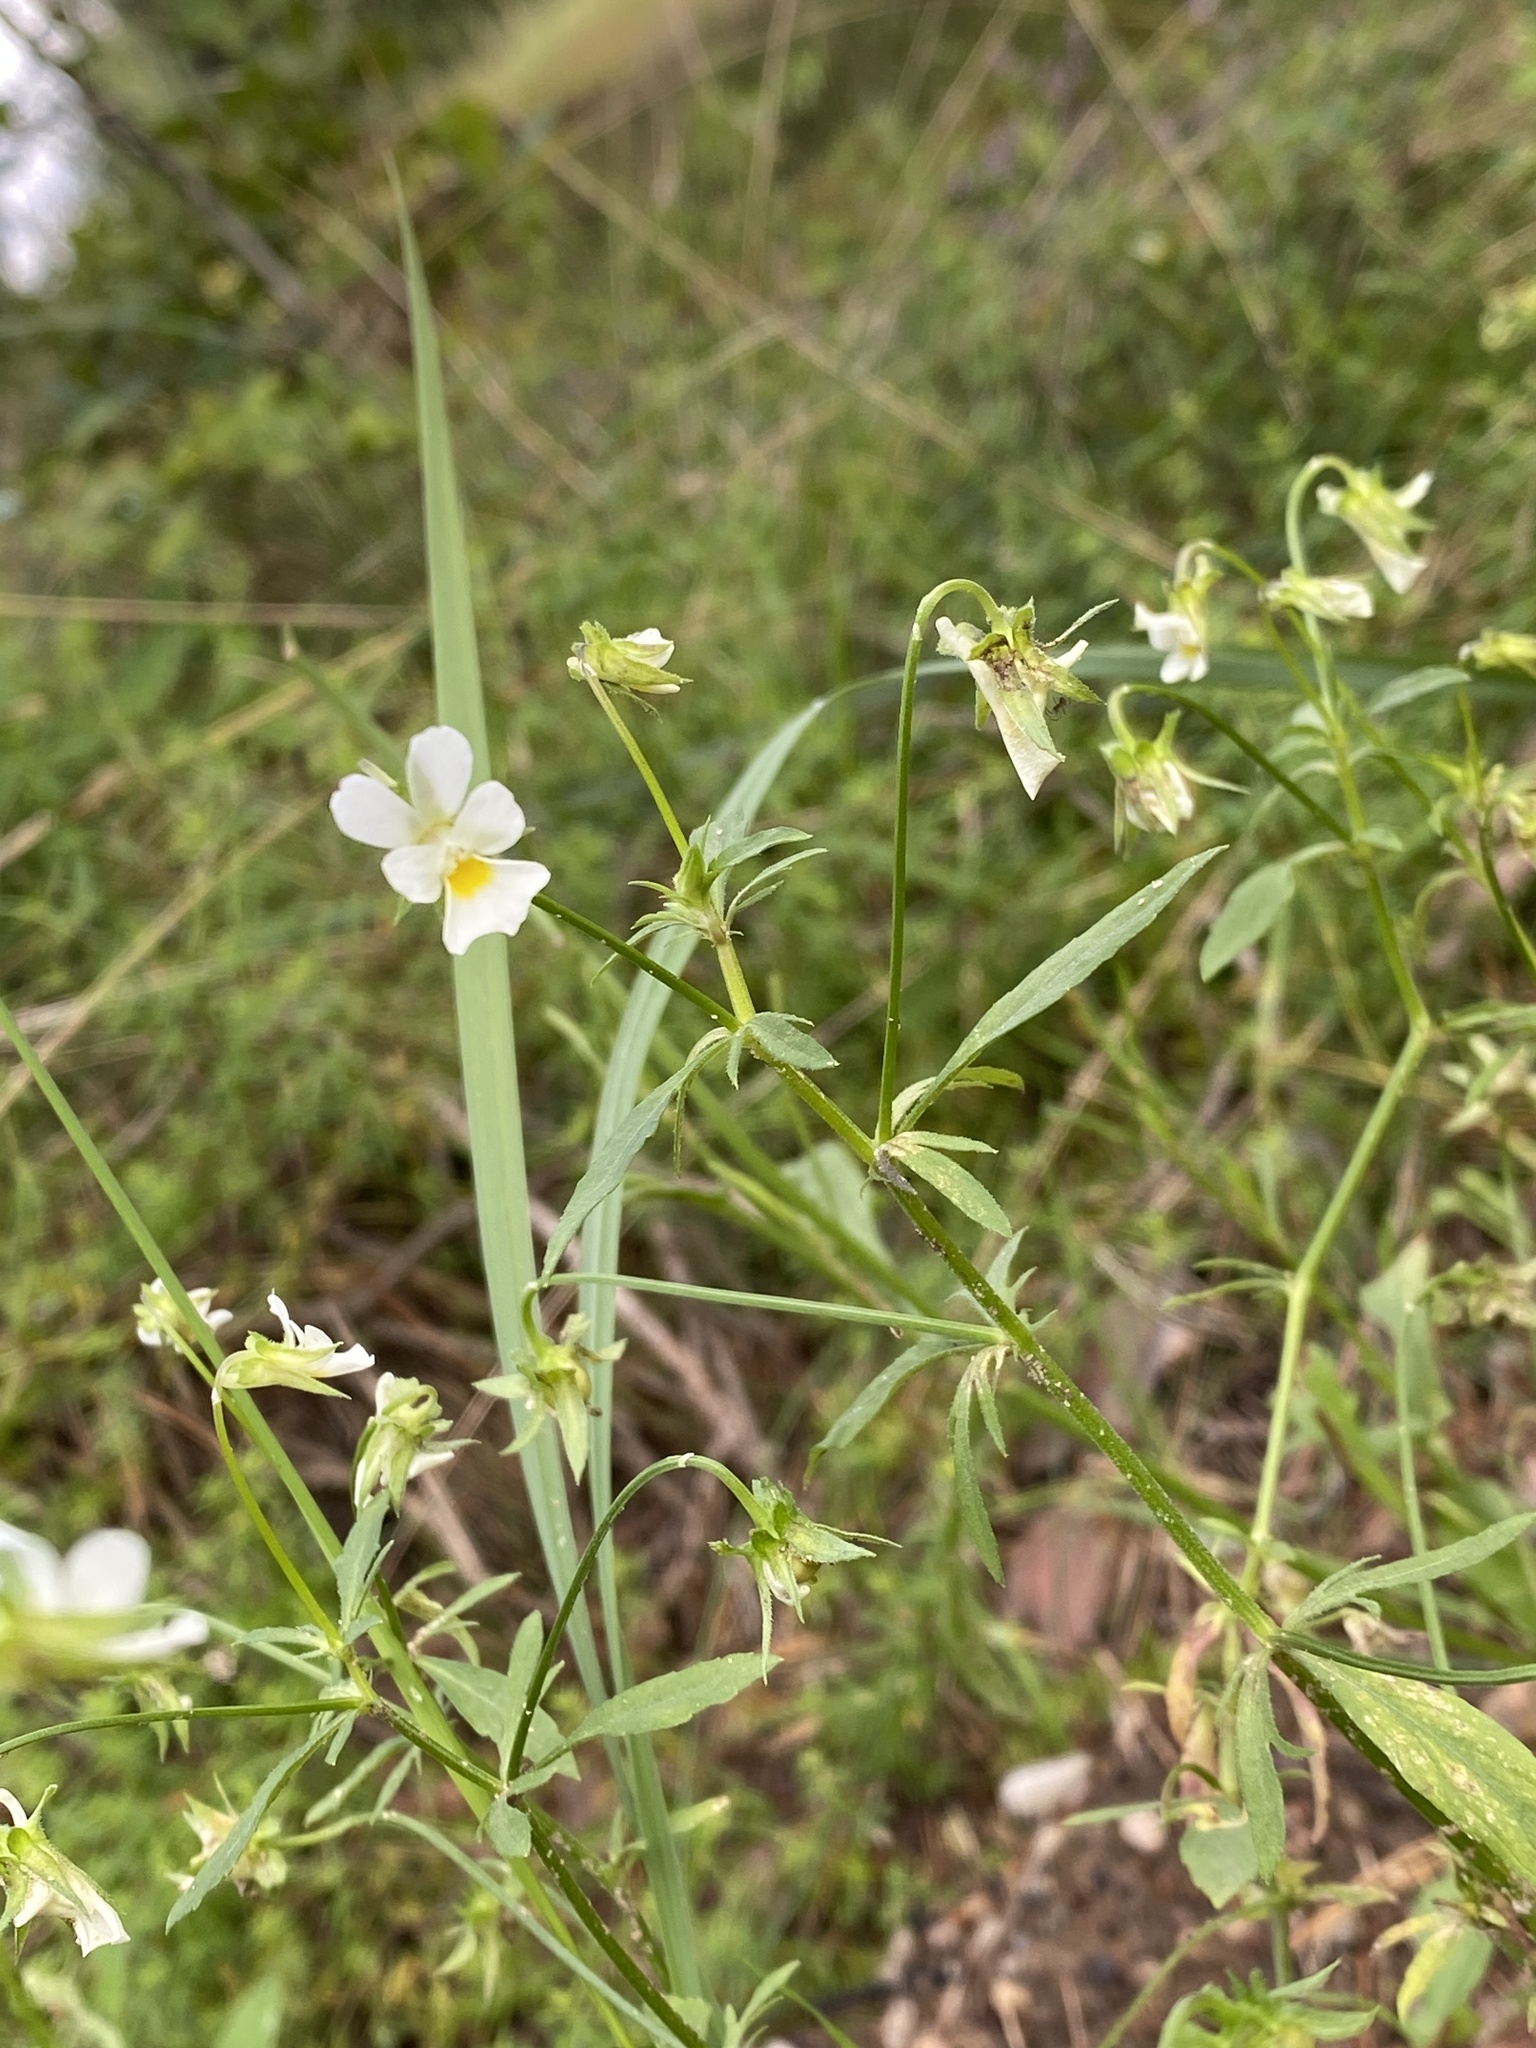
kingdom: Plantae
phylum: Tracheophyta
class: Magnoliopsida
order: Malpighiales
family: Violaceae
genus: Viola
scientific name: Viola arvensis
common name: Field pansy
